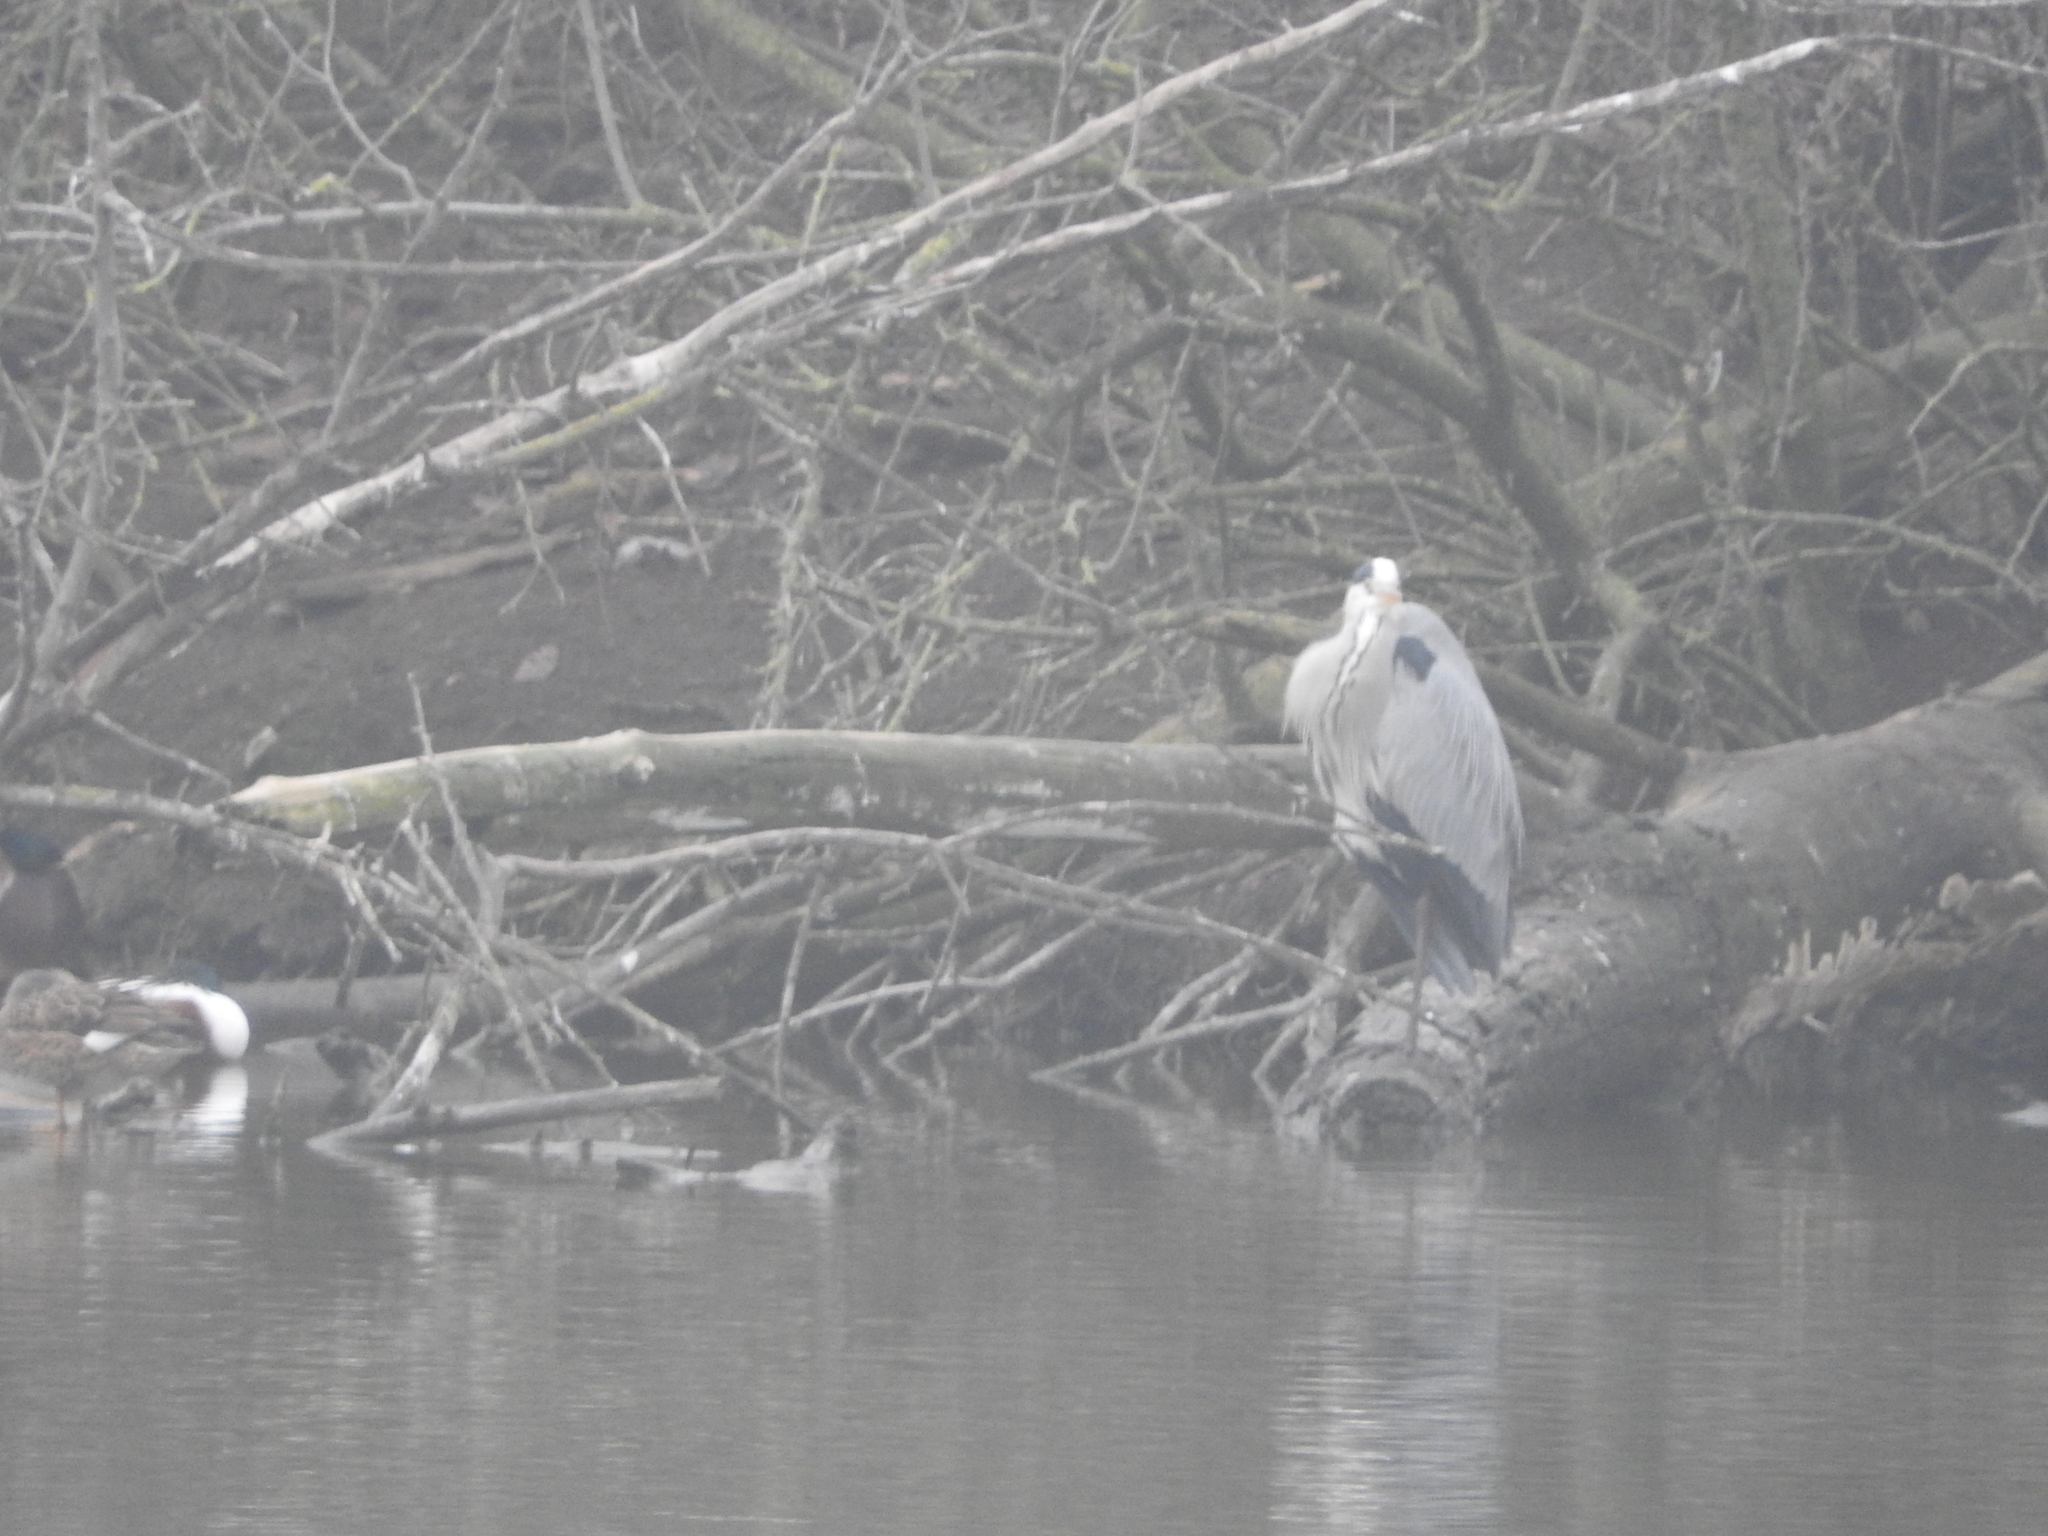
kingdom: Animalia
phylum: Chordata
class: Aves
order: Pelecaniformes
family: Ardeidae
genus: Ardea
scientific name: Ardea cinerea
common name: Grey heron
